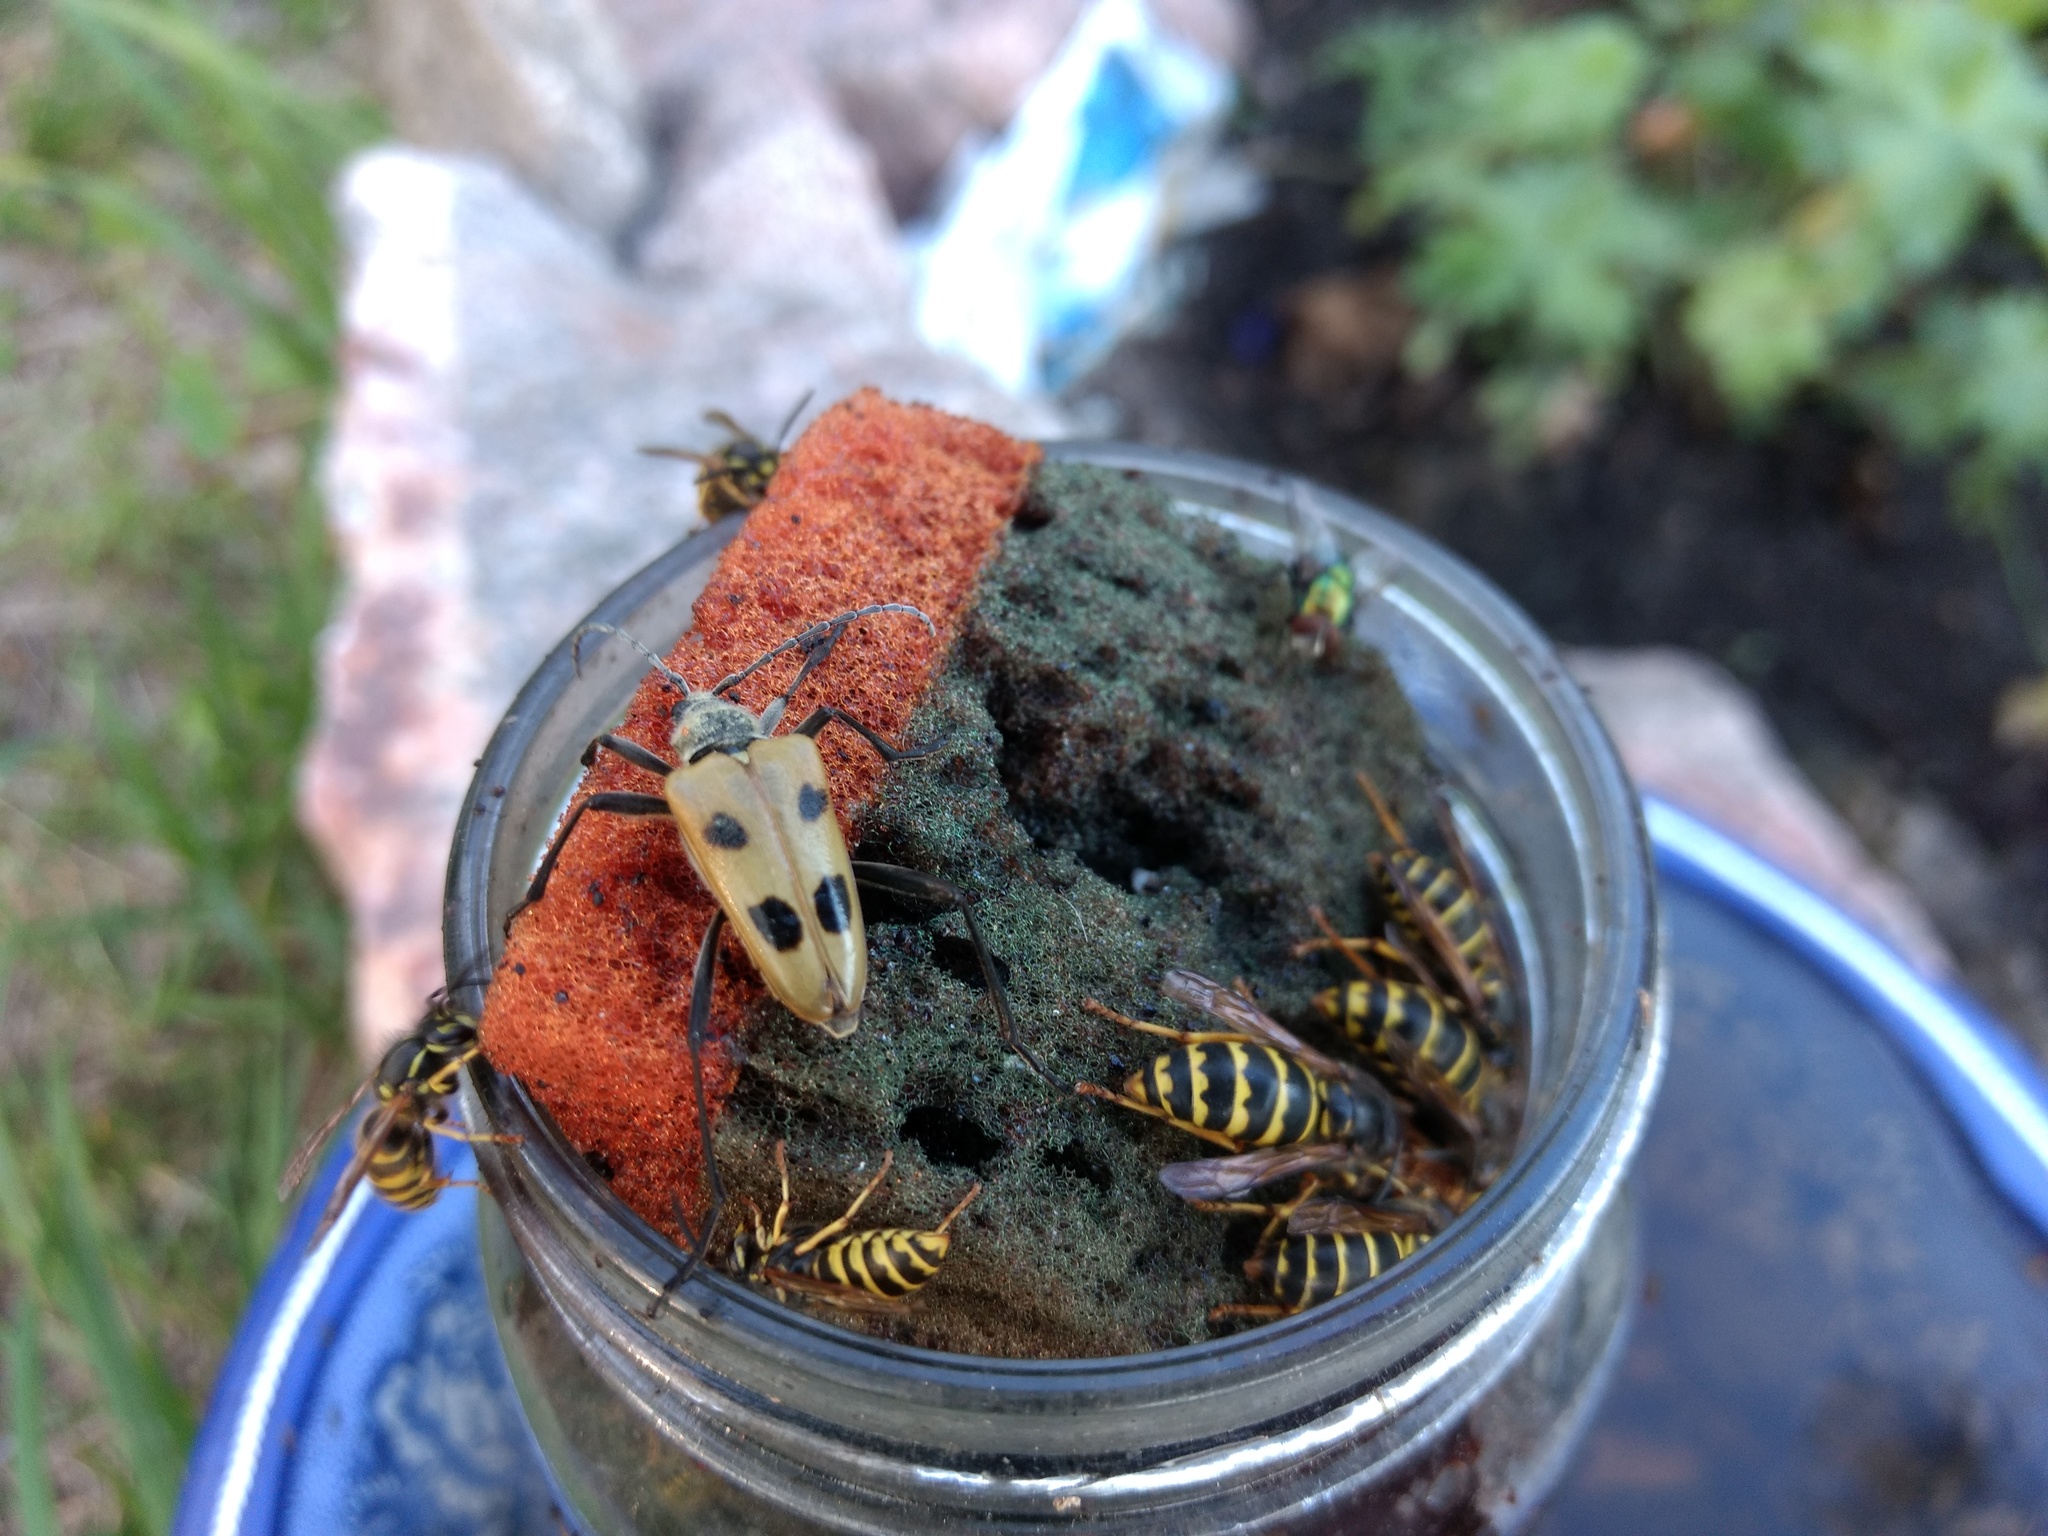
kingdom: Animalia
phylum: Arthropoda
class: Insecta
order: Coleoptera
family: Cerambycidae
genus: Pachyta
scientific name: Pachyta quadrimaculata
